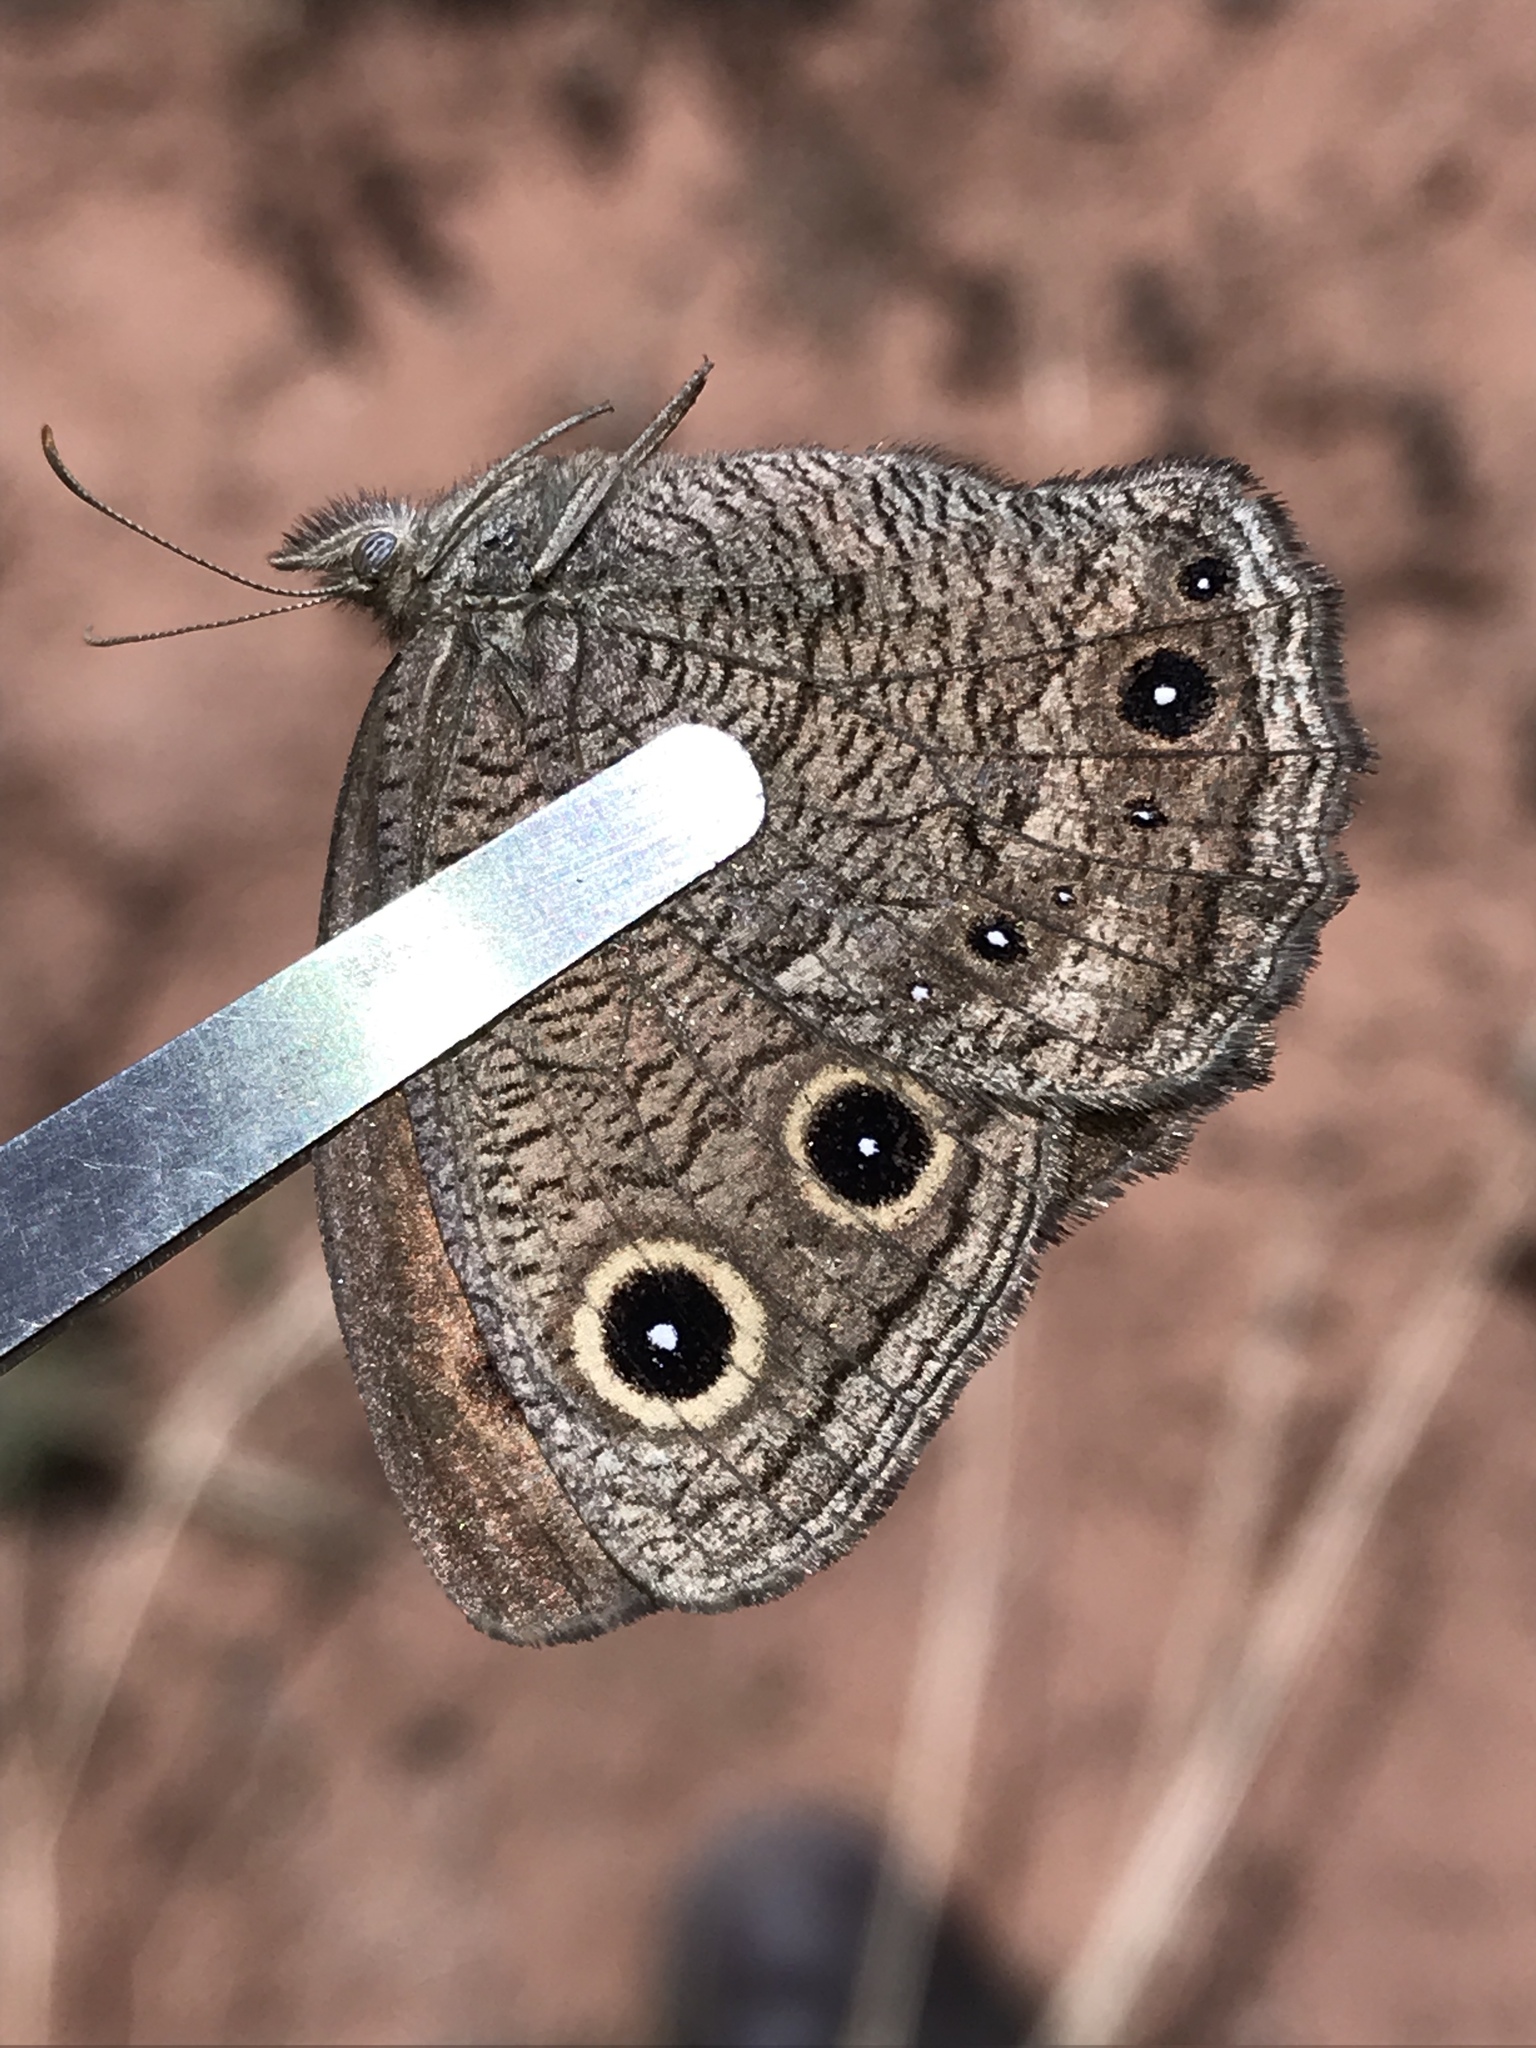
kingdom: Animalia
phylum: Arthropoda
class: Insecta
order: Lepidoptera
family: Nymphalidae
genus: Cercyonis
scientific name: Cercyonis sthenele
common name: Great basin wood-nymph
